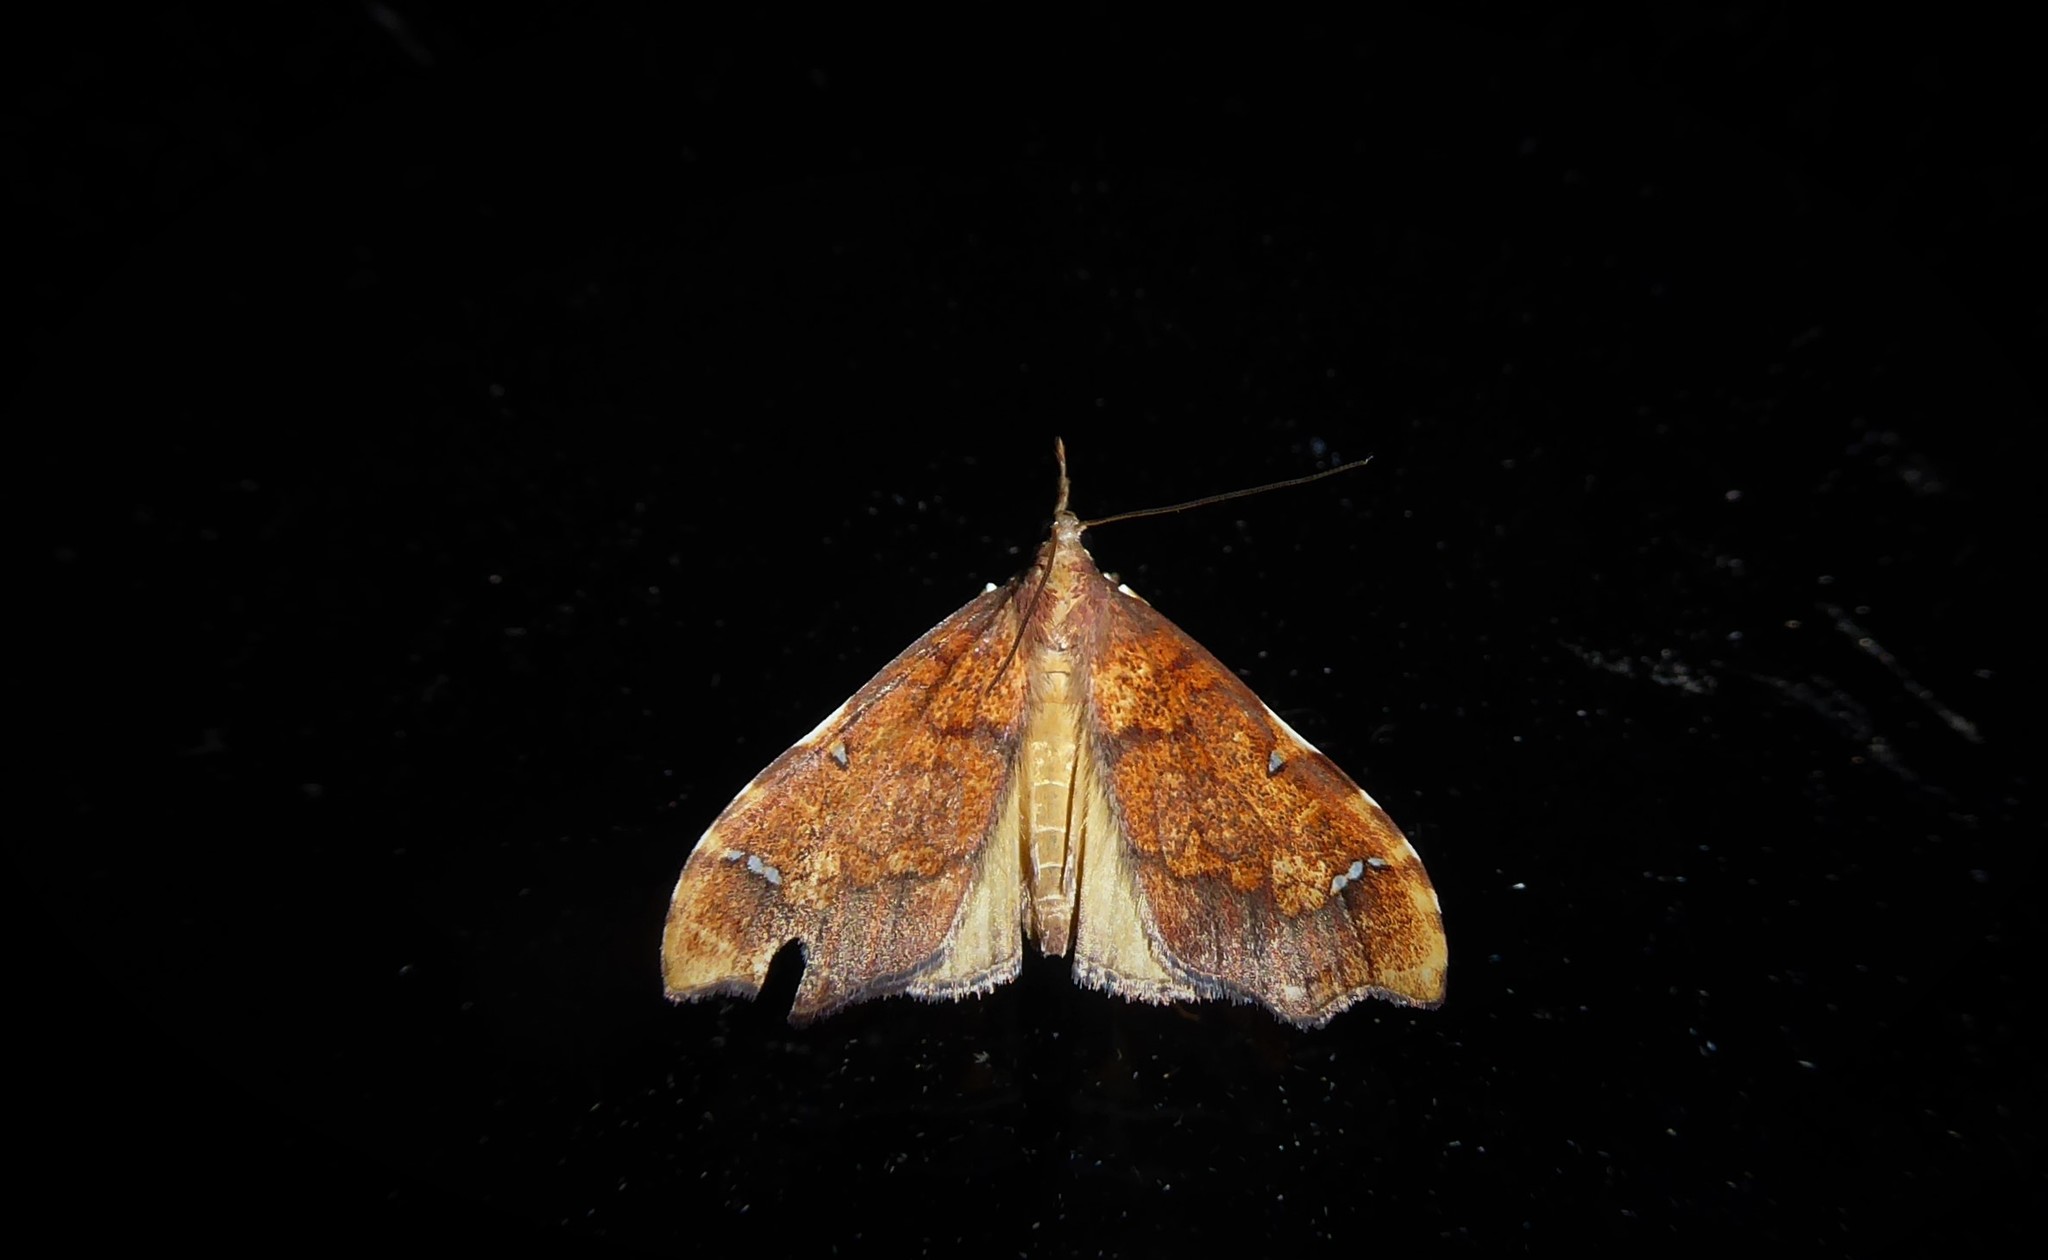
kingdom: Animalia
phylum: Arthropoda
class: Insecta
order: Lepidoptera
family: Crambidae
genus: Deana
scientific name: Deana hybreasalis
